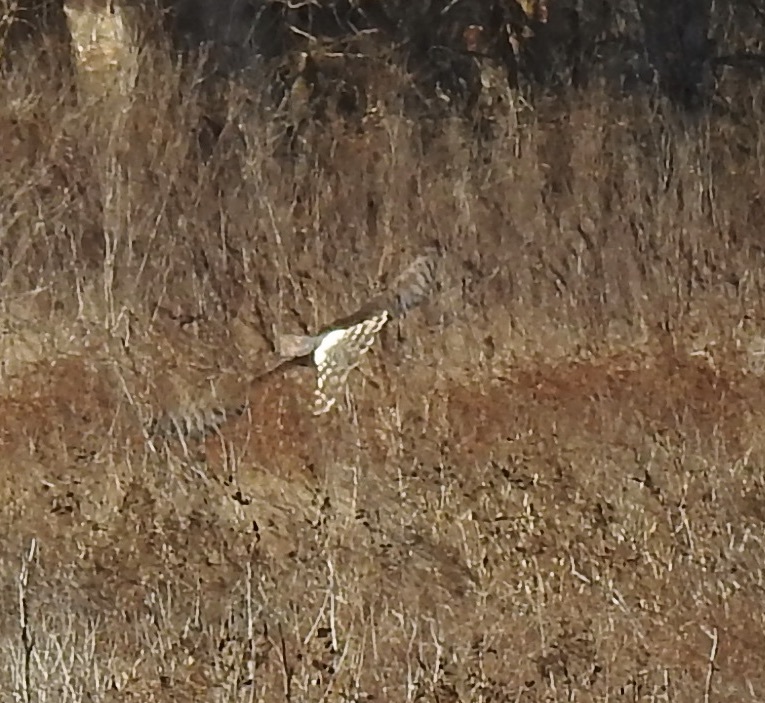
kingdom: Animalia
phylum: Chordata
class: Aves
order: Accipitriformes
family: Accipitridae
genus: Circus
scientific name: Circus cyaneus
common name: Hen harrier
